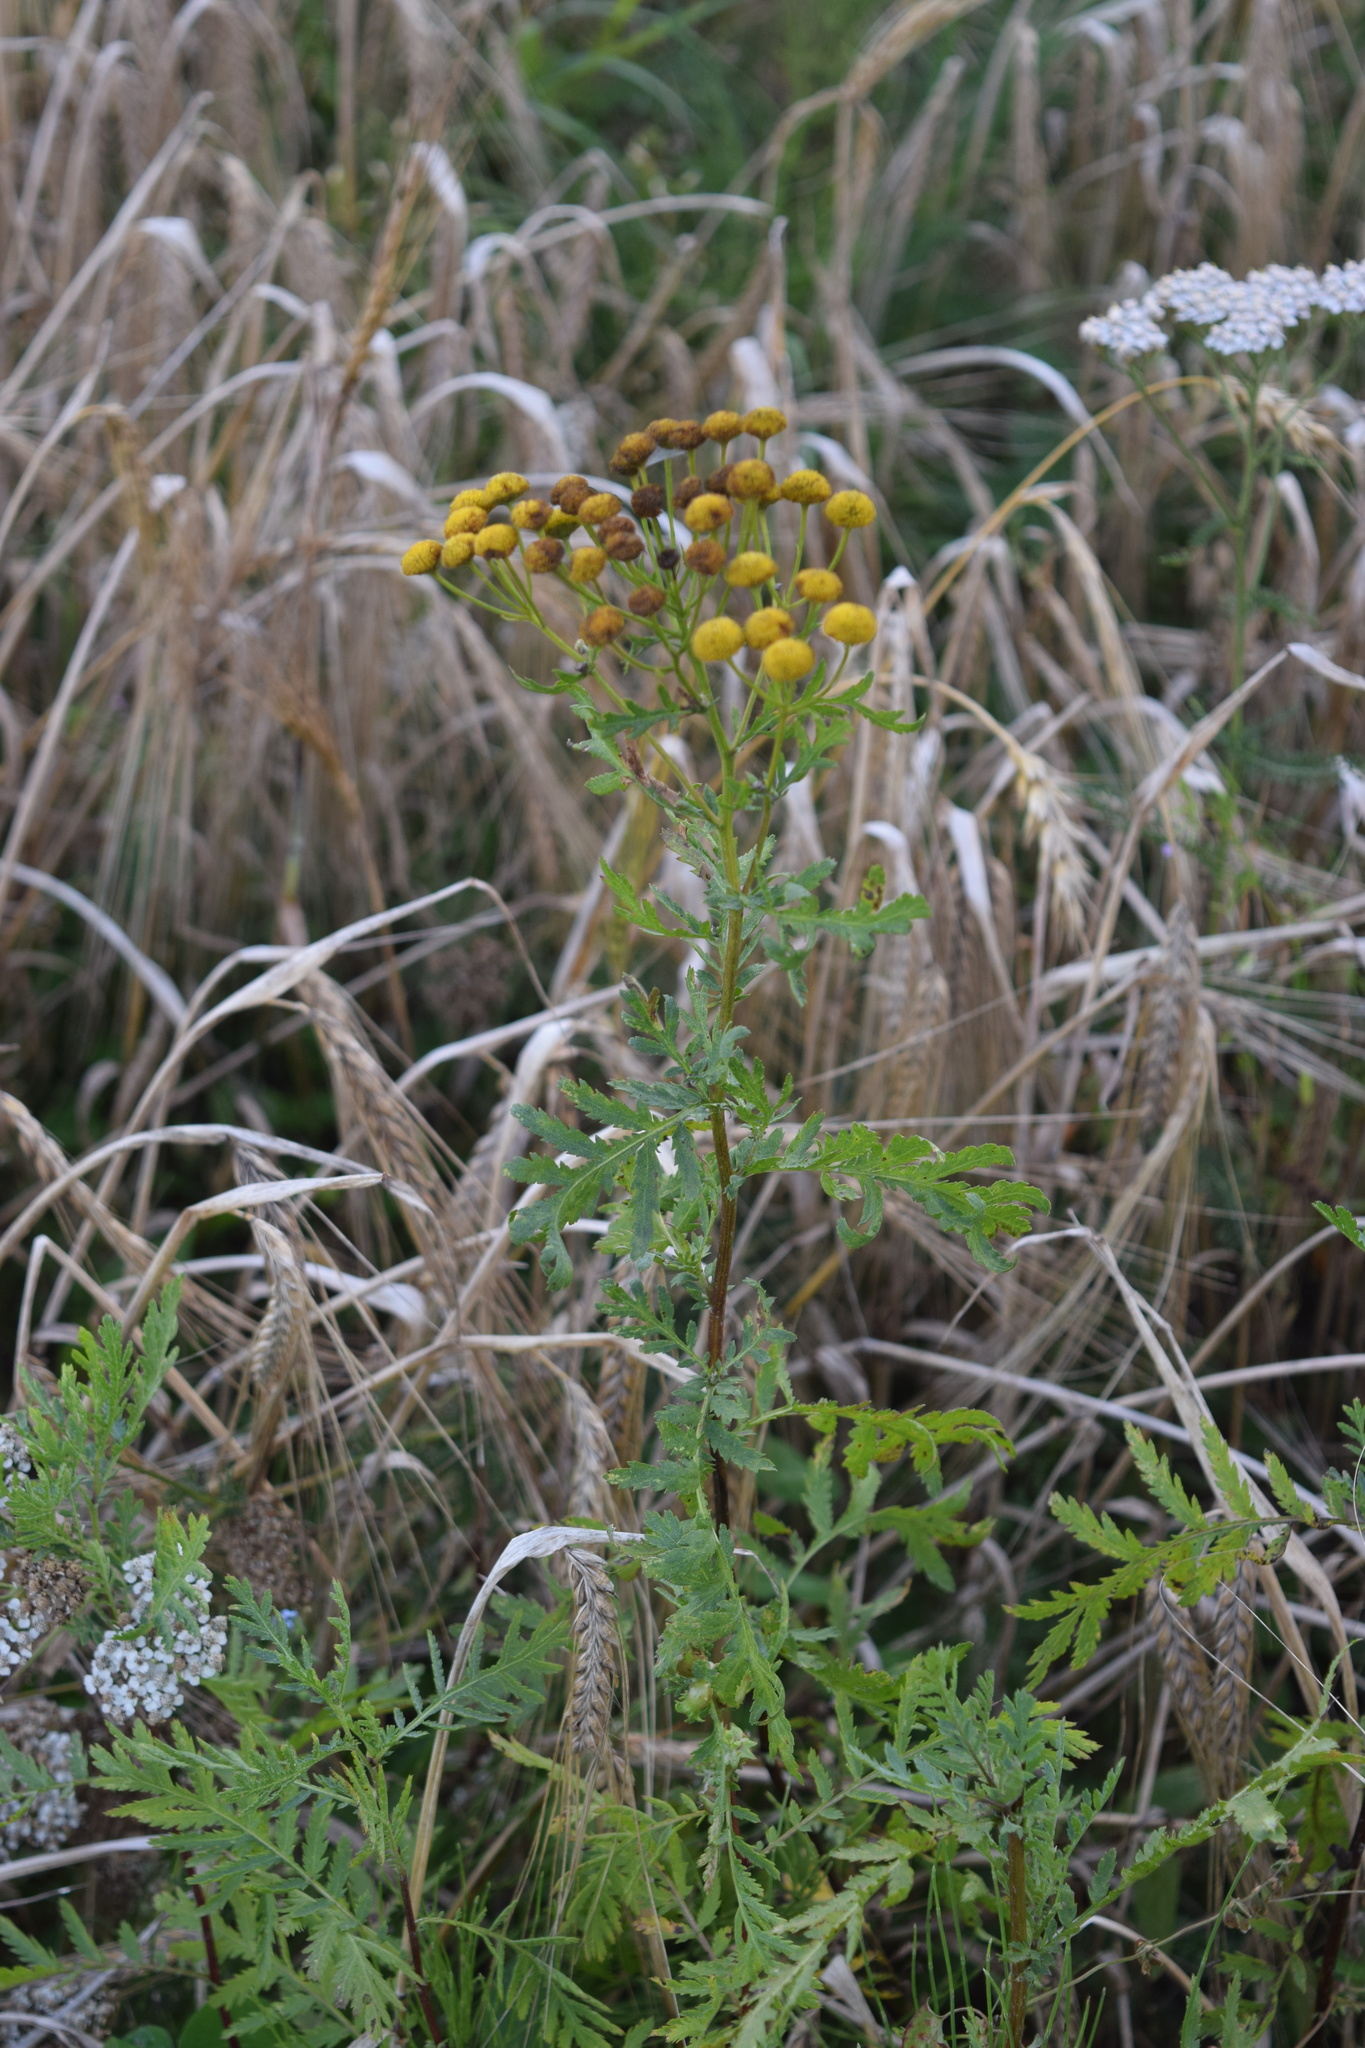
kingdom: Plantae
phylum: Tracheophyta
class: Magnoliopsida
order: Asterales
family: Asteraceae
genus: Tanacetum
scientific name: Tanacetum vulgare
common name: Common tansy
